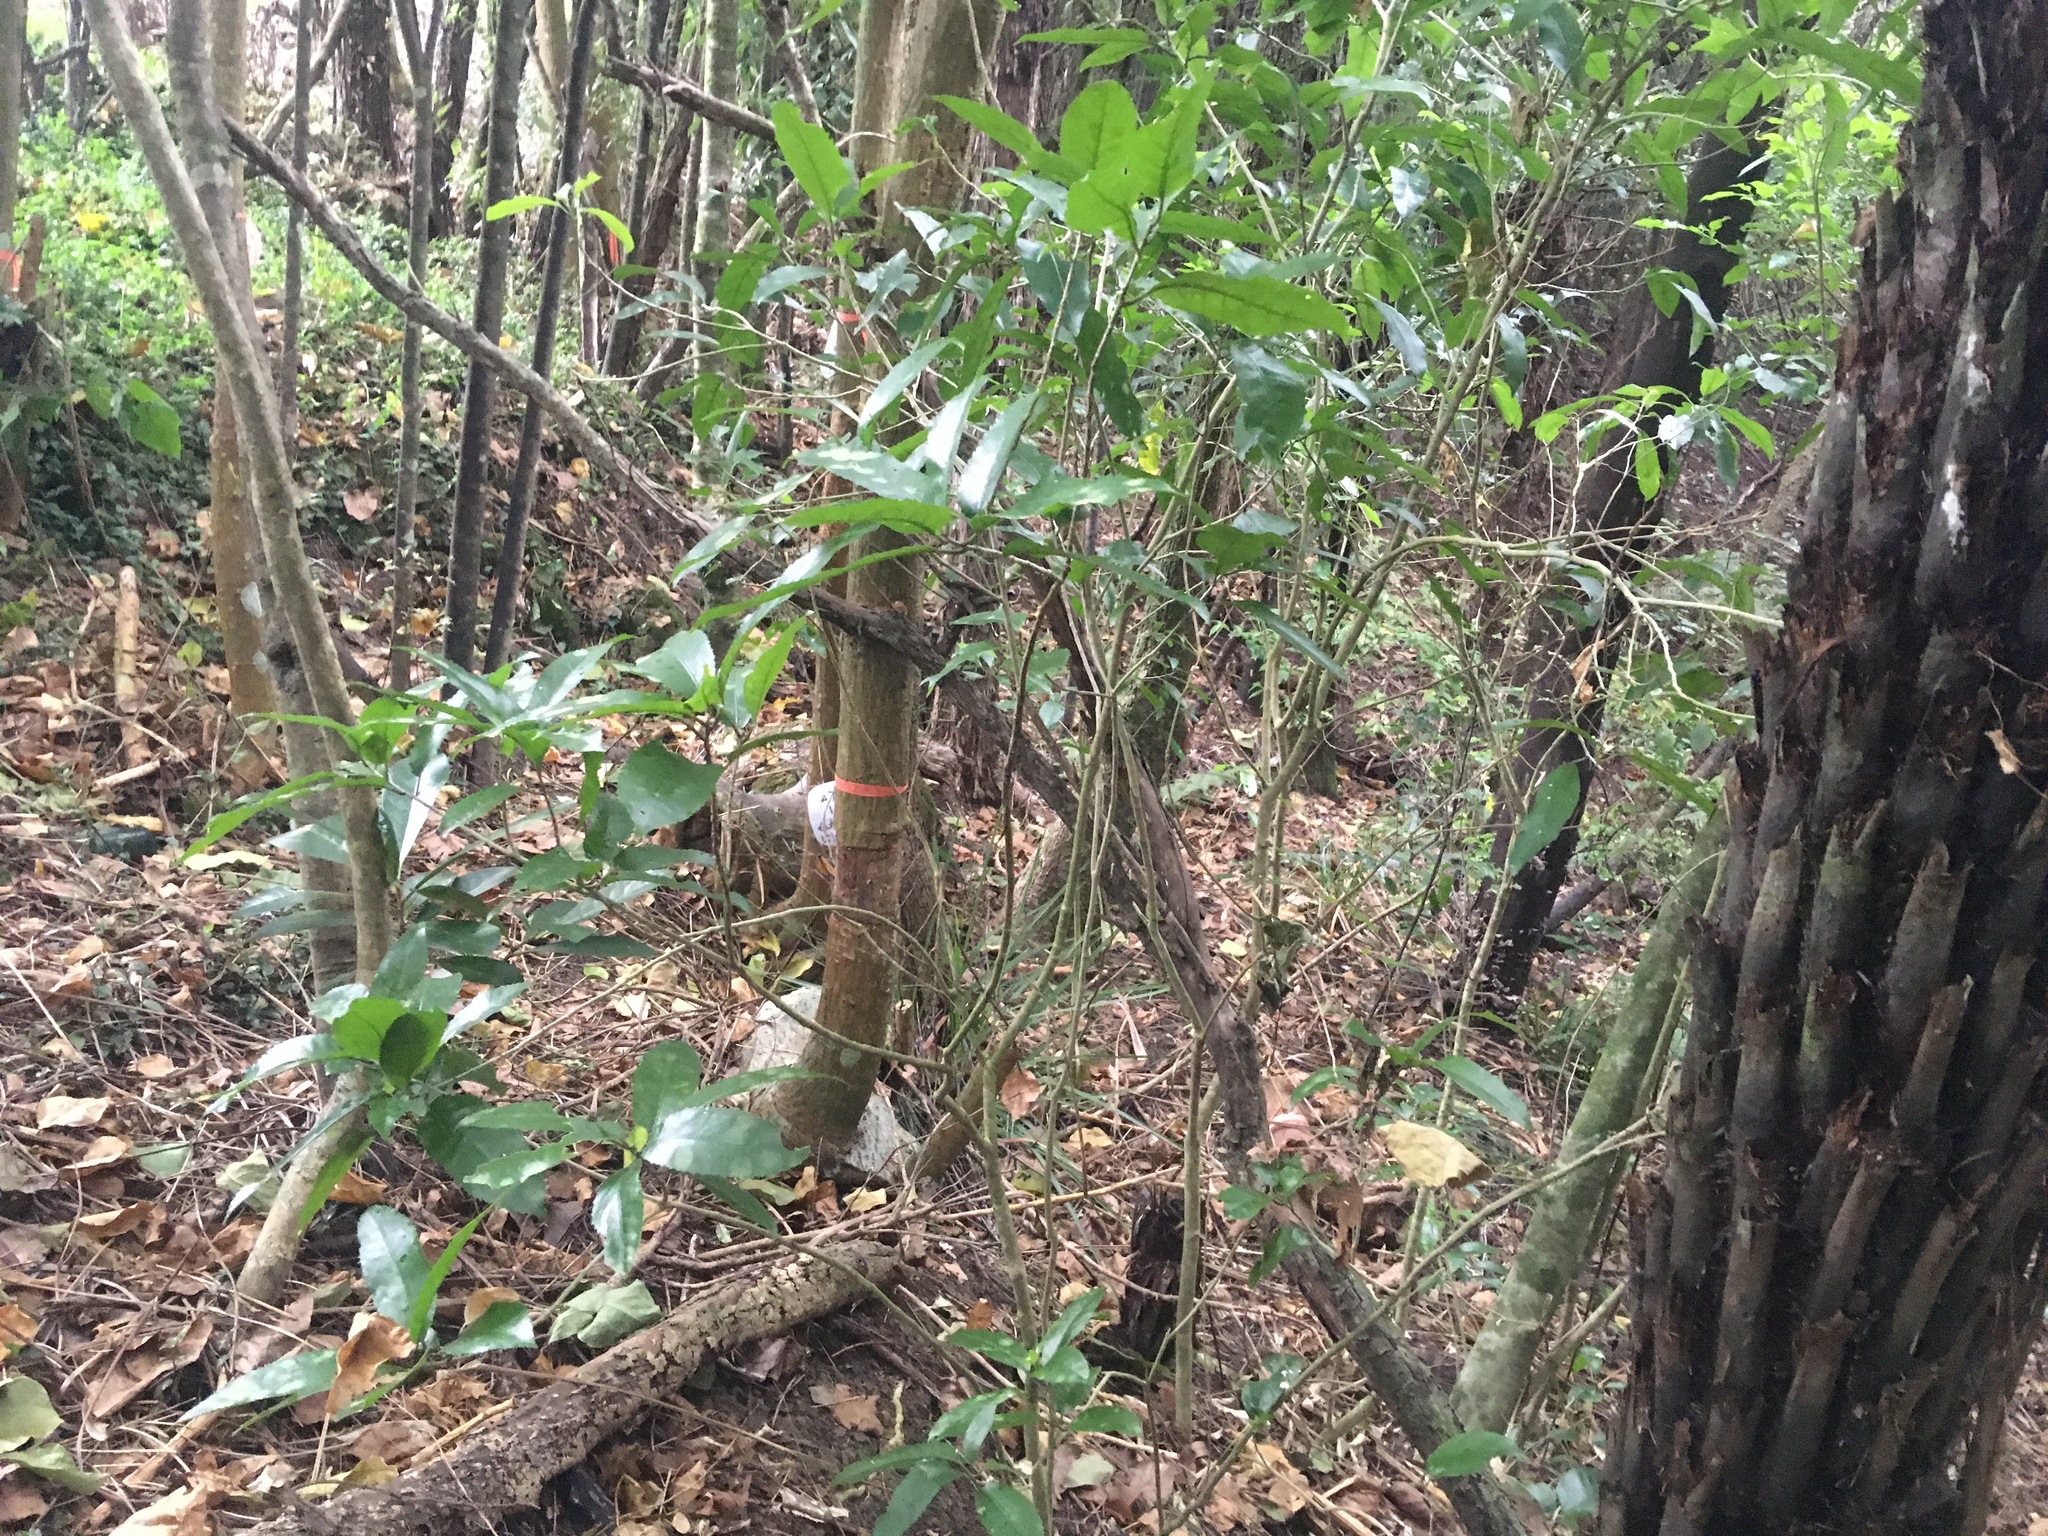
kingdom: Plantae
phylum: Tracheophyta
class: Magnoliopsida
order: Malpighiales
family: Violaceae
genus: Melicytus
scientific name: Melicytus ramiflorus
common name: Mahoe
